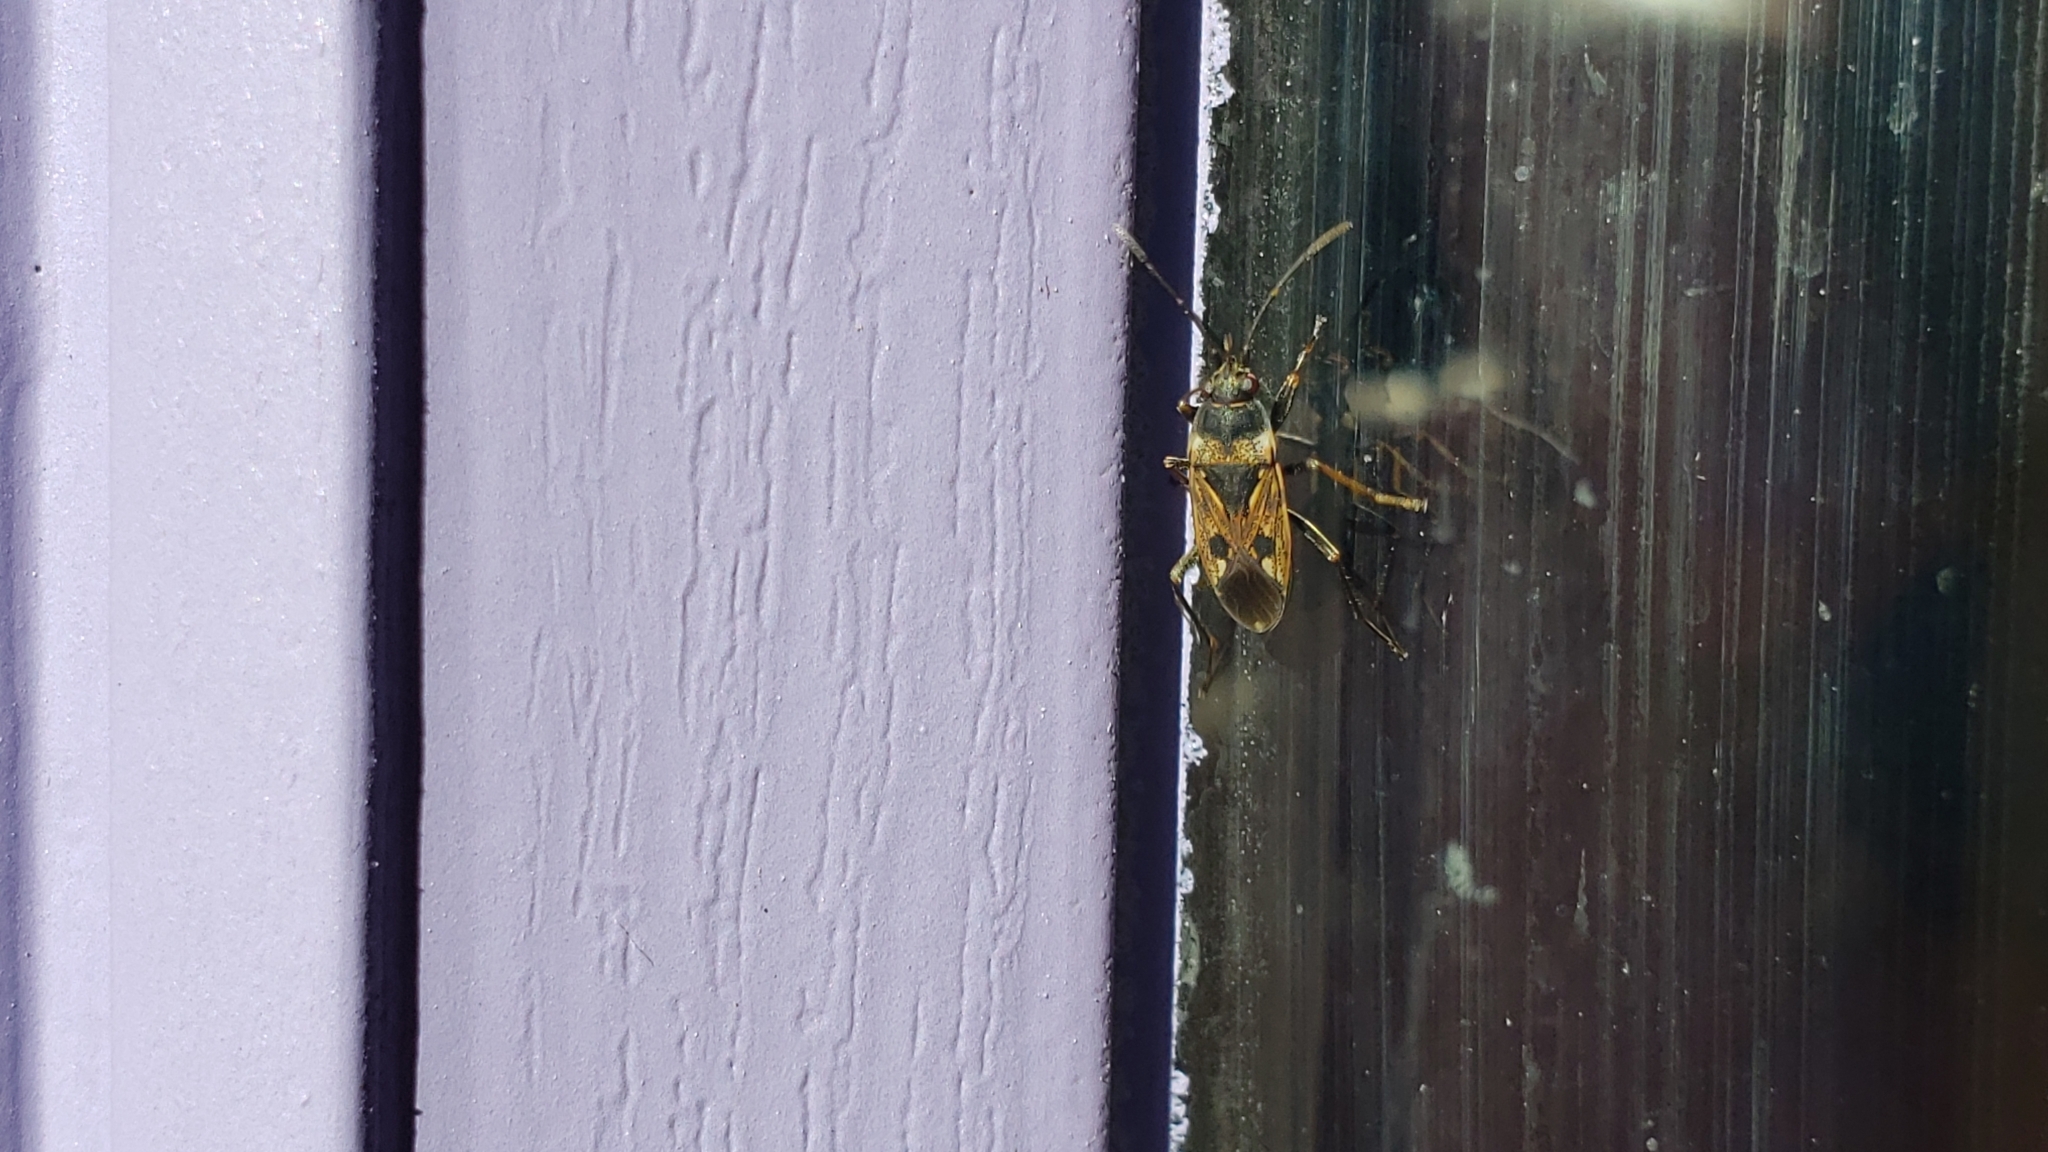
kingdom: Animalia
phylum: Arthropoda
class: Insecta
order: Hemiptera
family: Rhyparochromidae
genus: Rhyparochromus
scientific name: Rhyparochromus vulgaris
